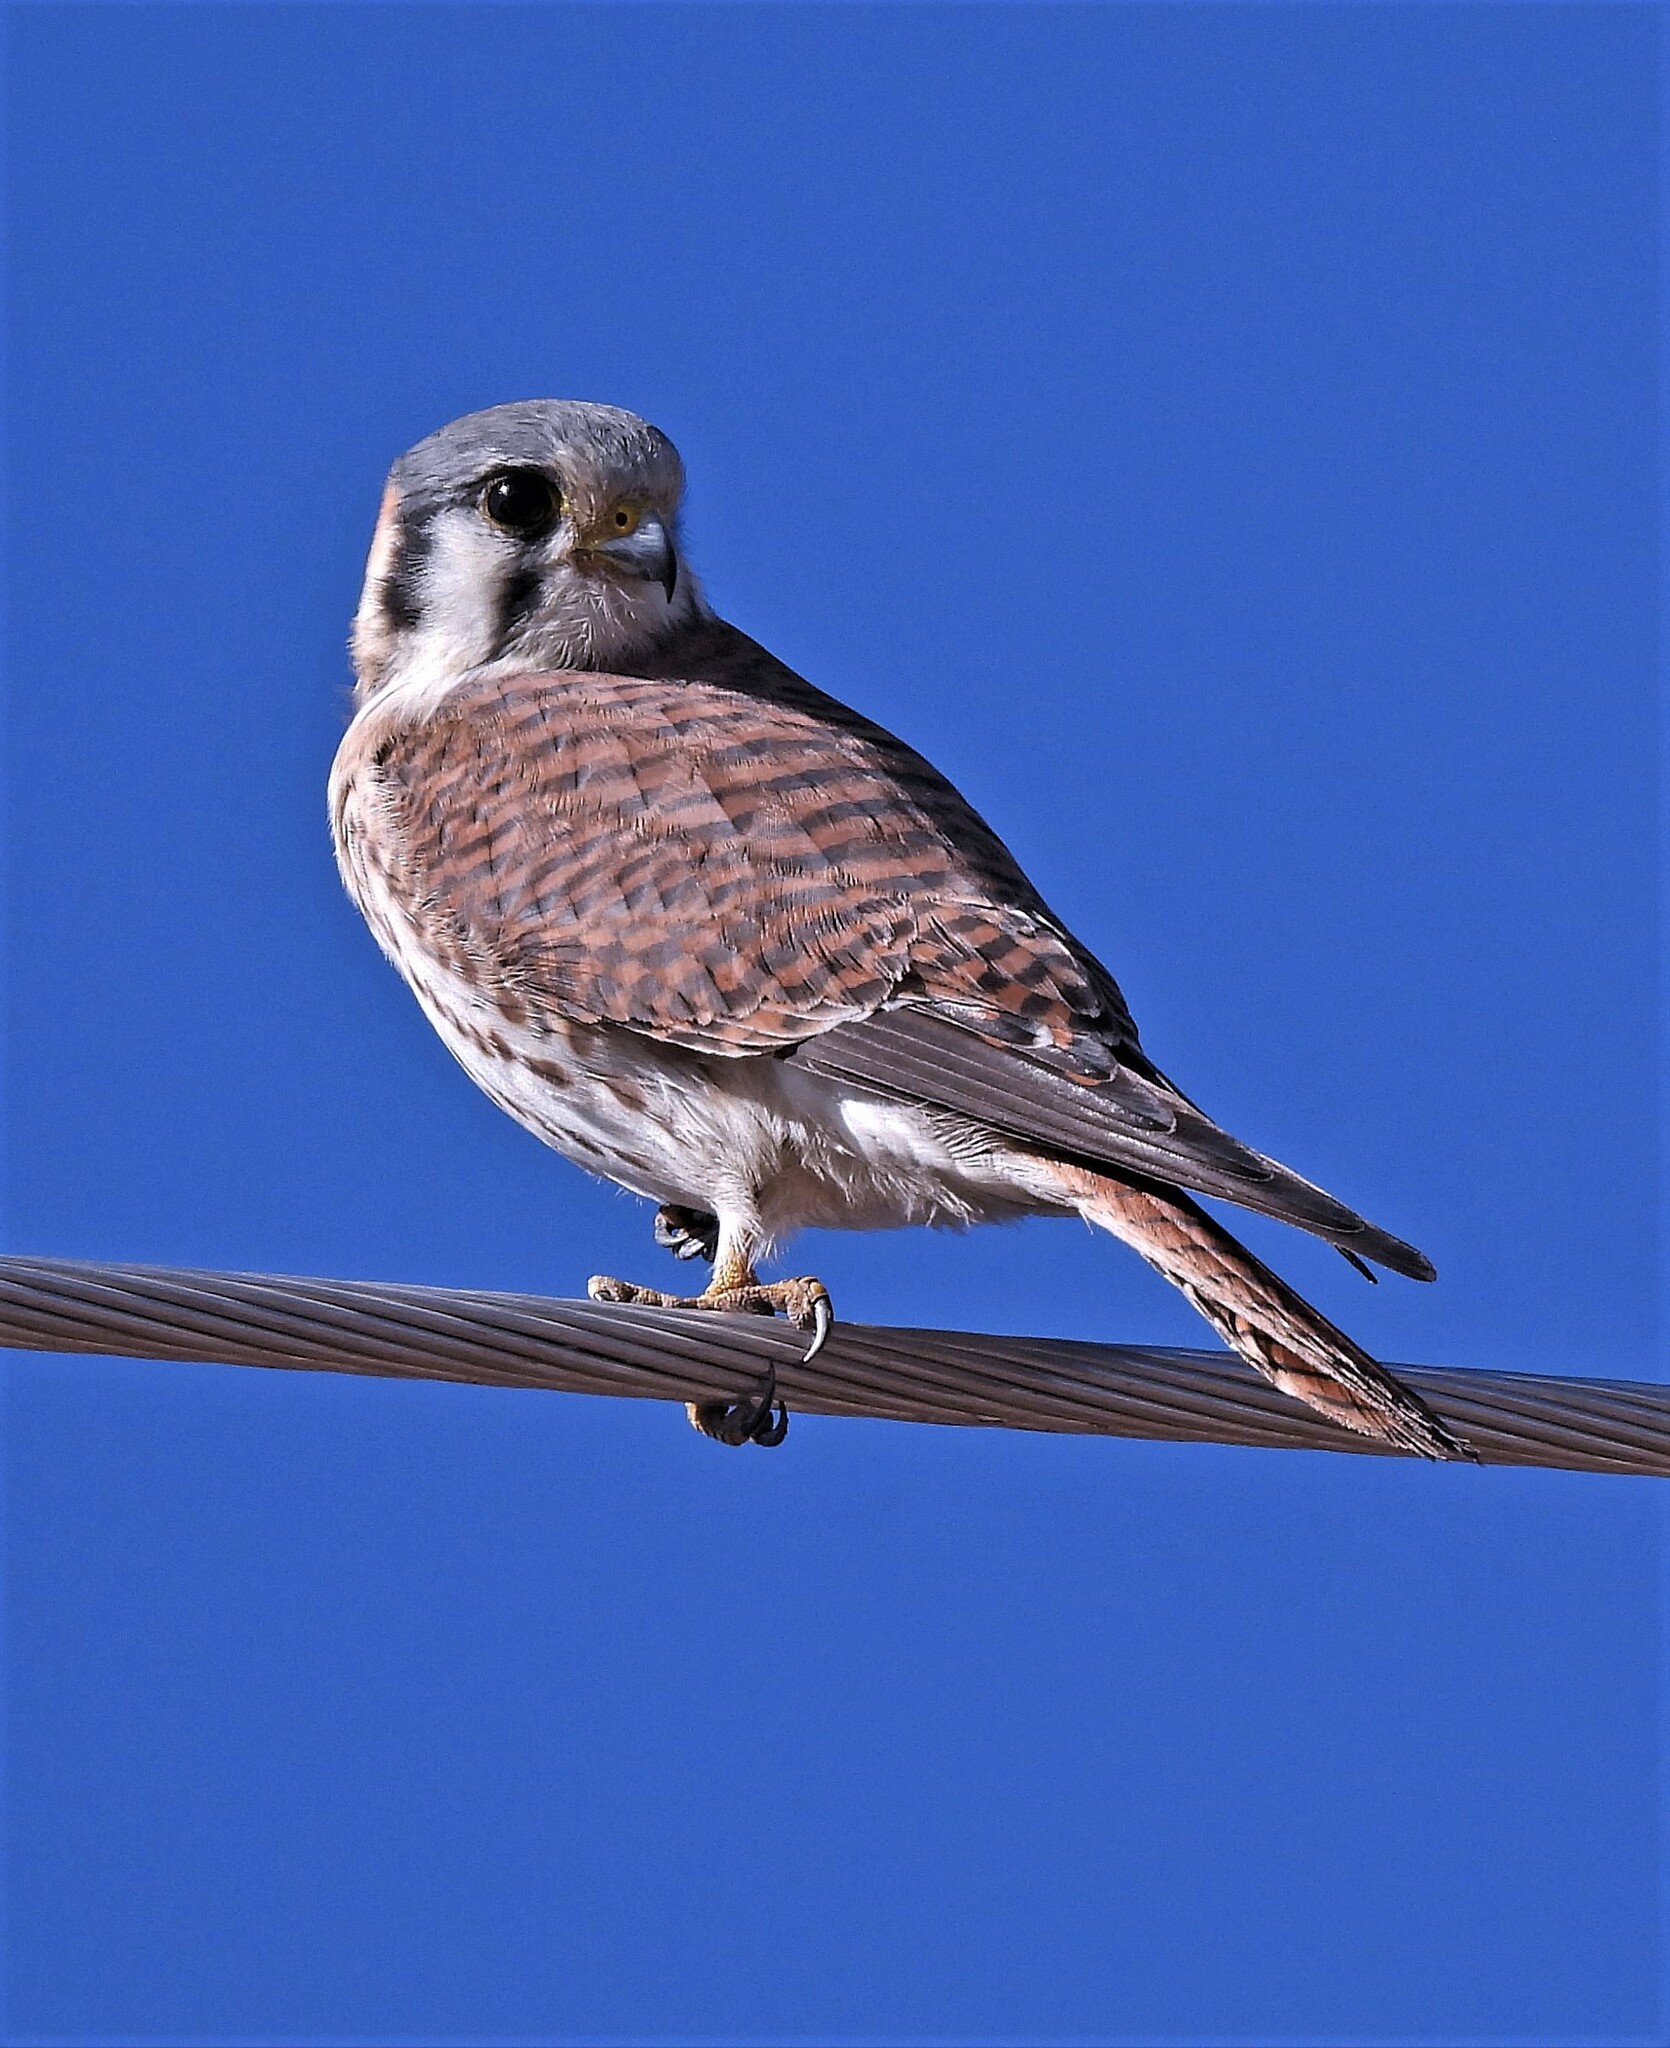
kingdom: Animalia
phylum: Chordata
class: Aves
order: Falconiformes
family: Falconidae
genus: Falco
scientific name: Falco sparverius
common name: American kestrel
